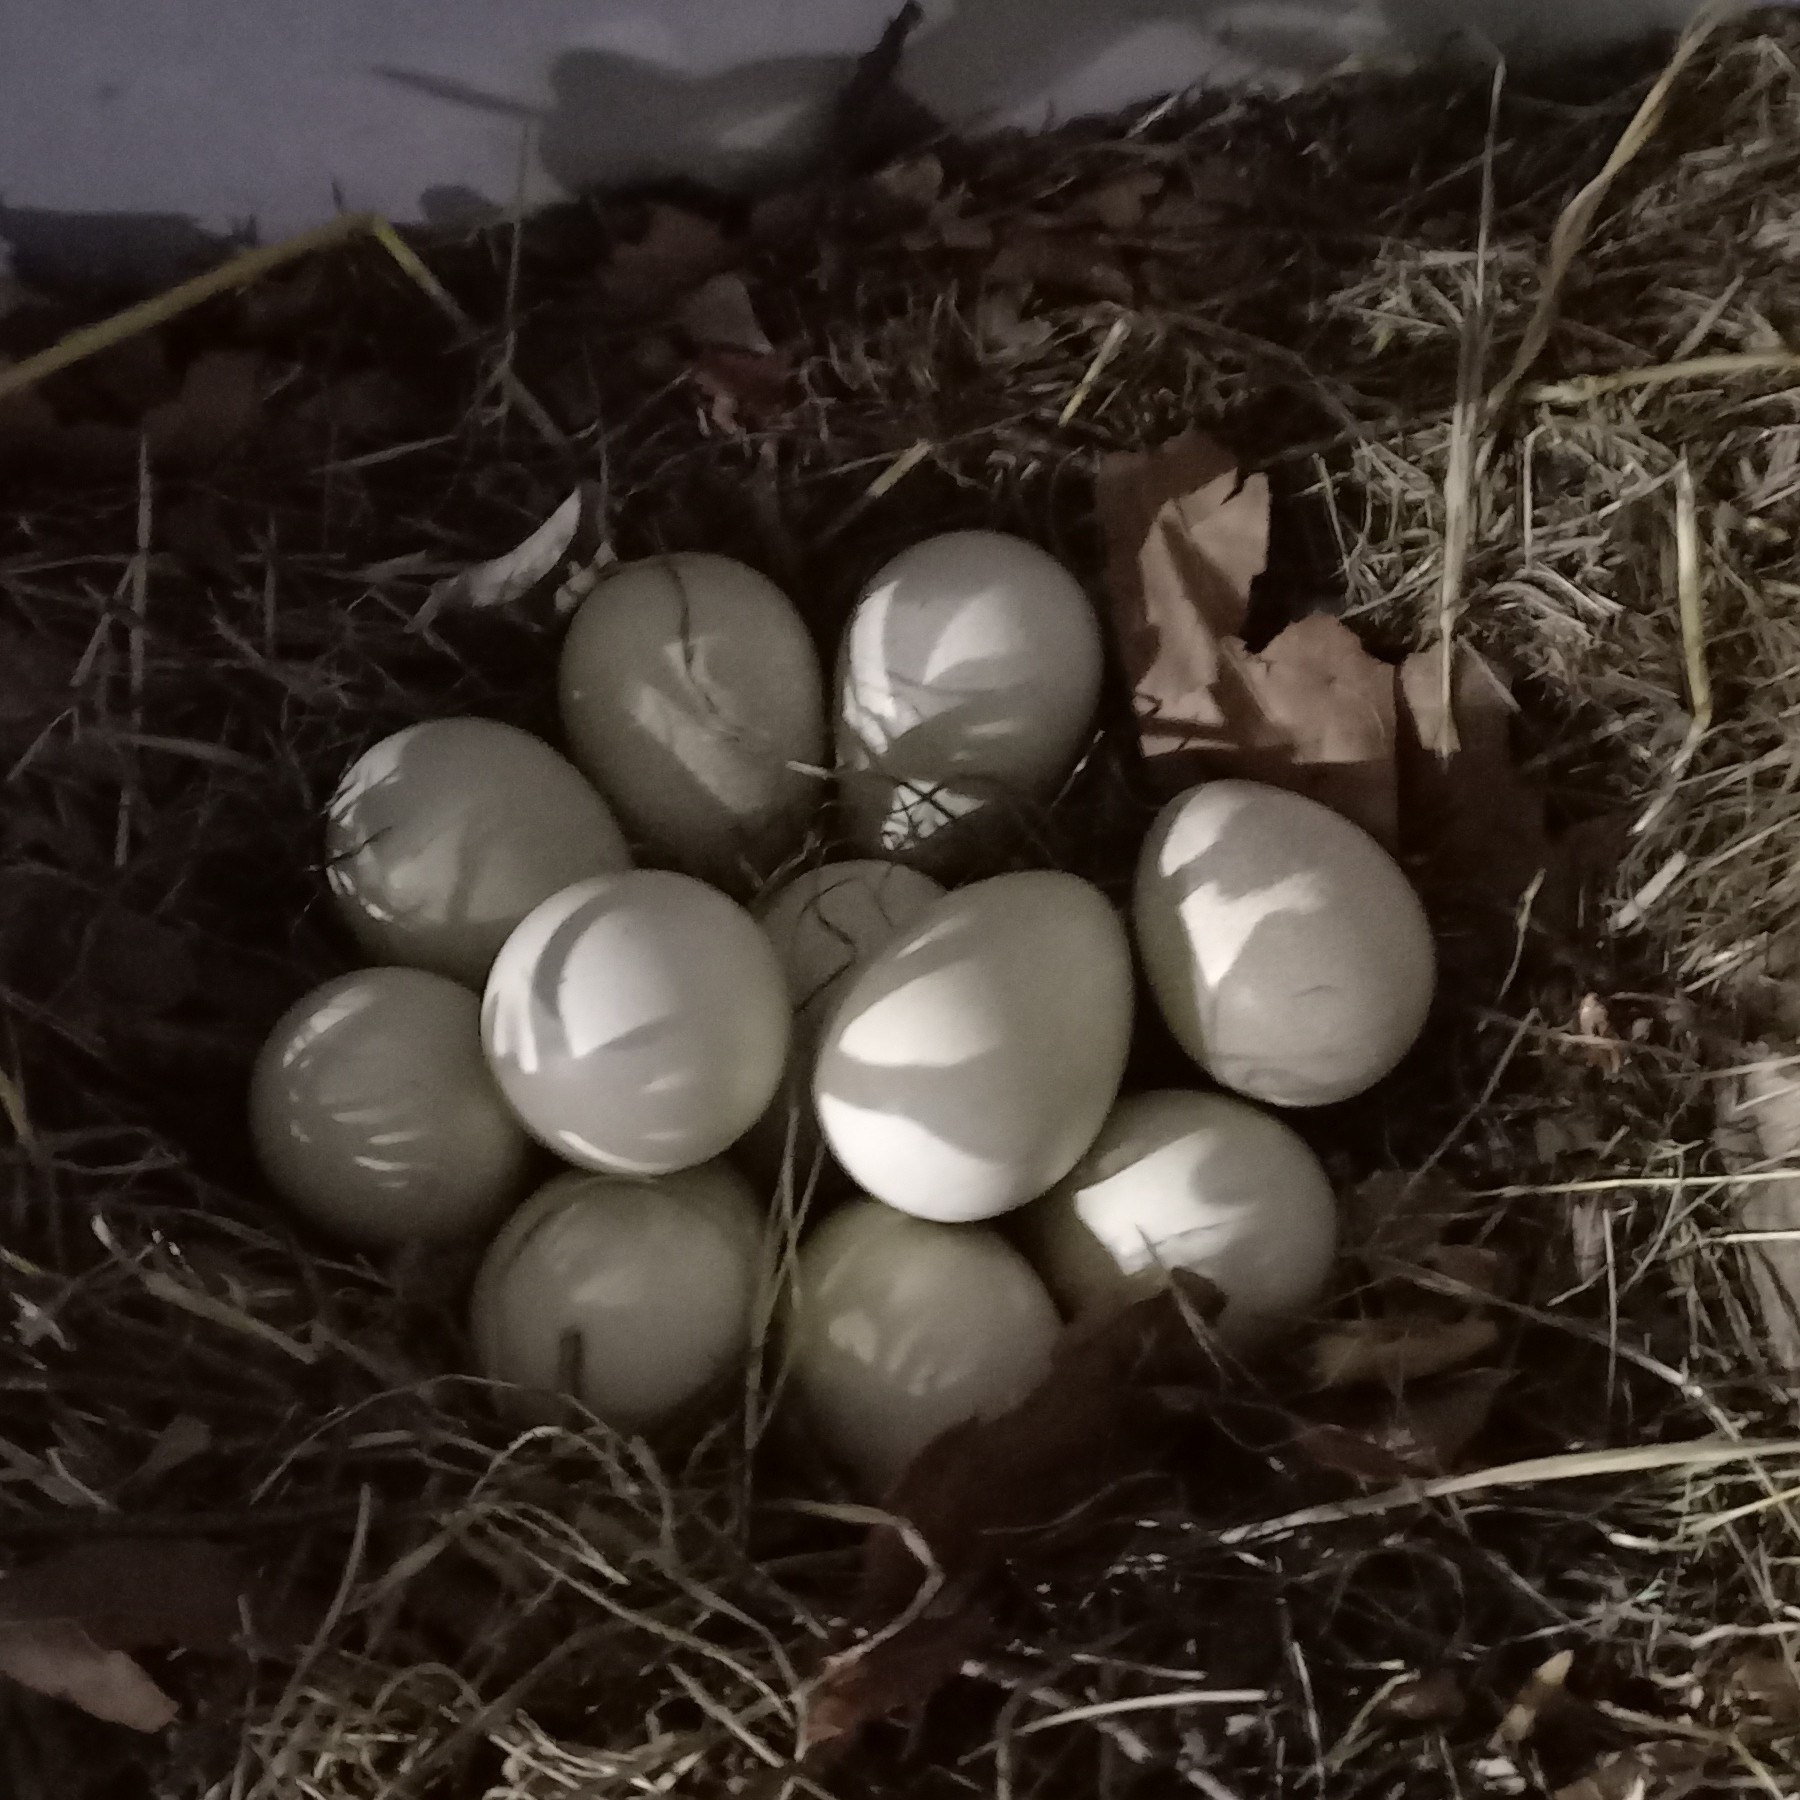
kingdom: Animalia
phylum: Chordata
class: Aves
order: Galliformes
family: Numididae
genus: Numida
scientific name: Numida meleagris
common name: Helmeted guineafowl
